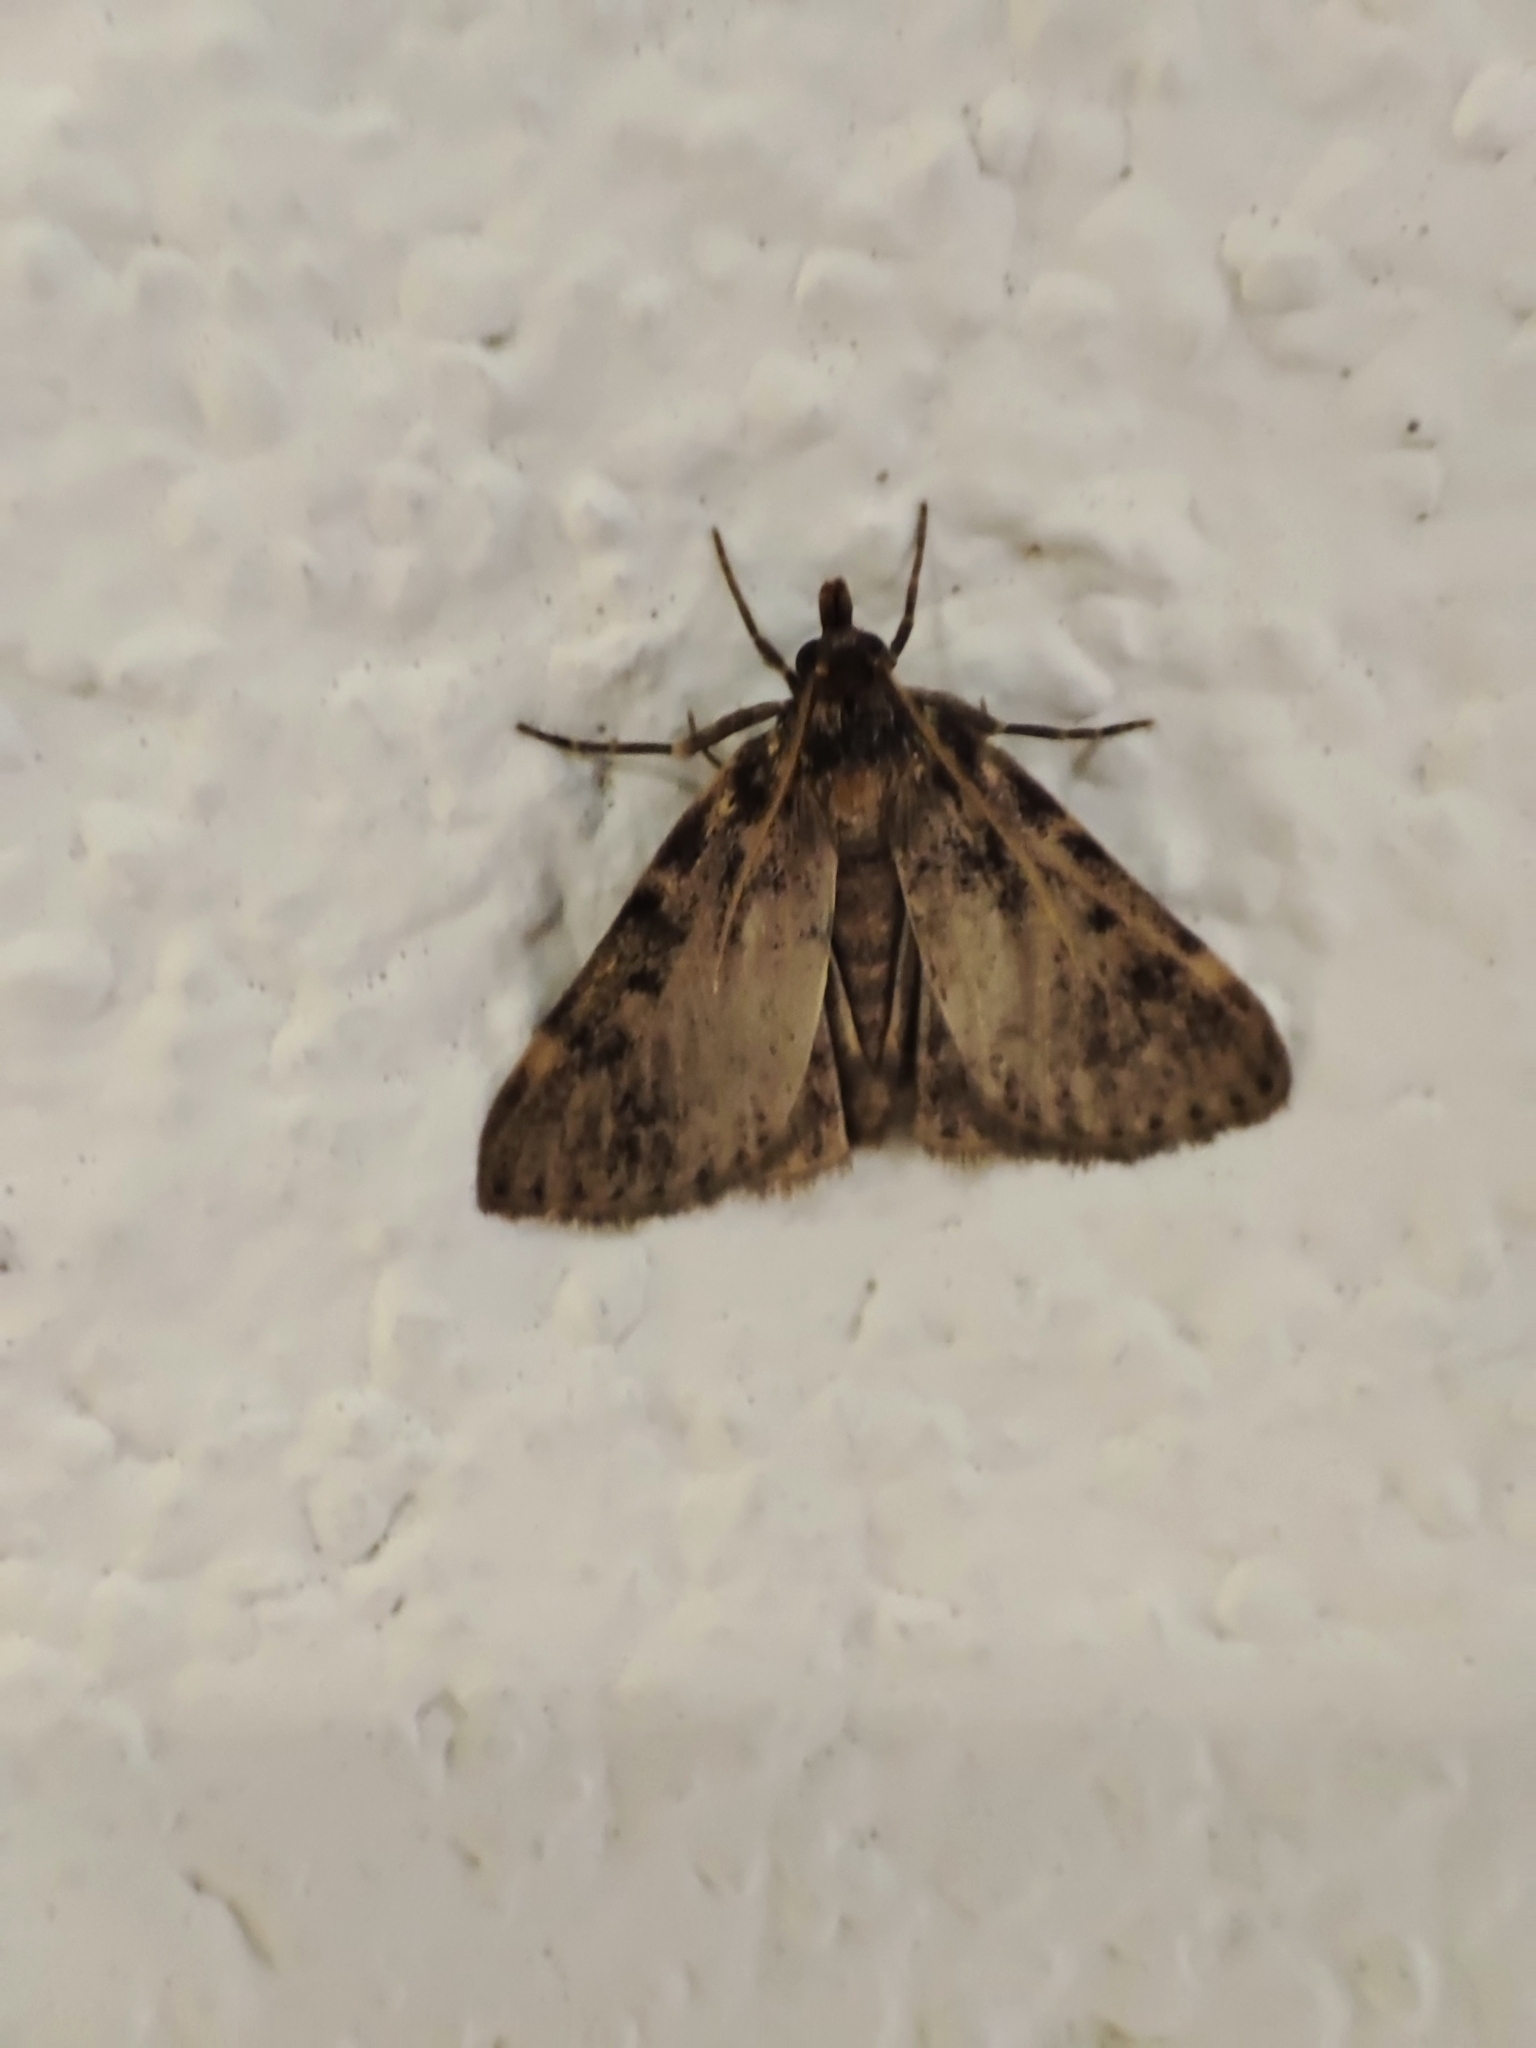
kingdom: Animalia
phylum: Arthropoda
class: Insecta
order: Lepidoptera
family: Pyralidae
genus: Aglossa
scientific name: Aglossa pinguinalis
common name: Large tabby
